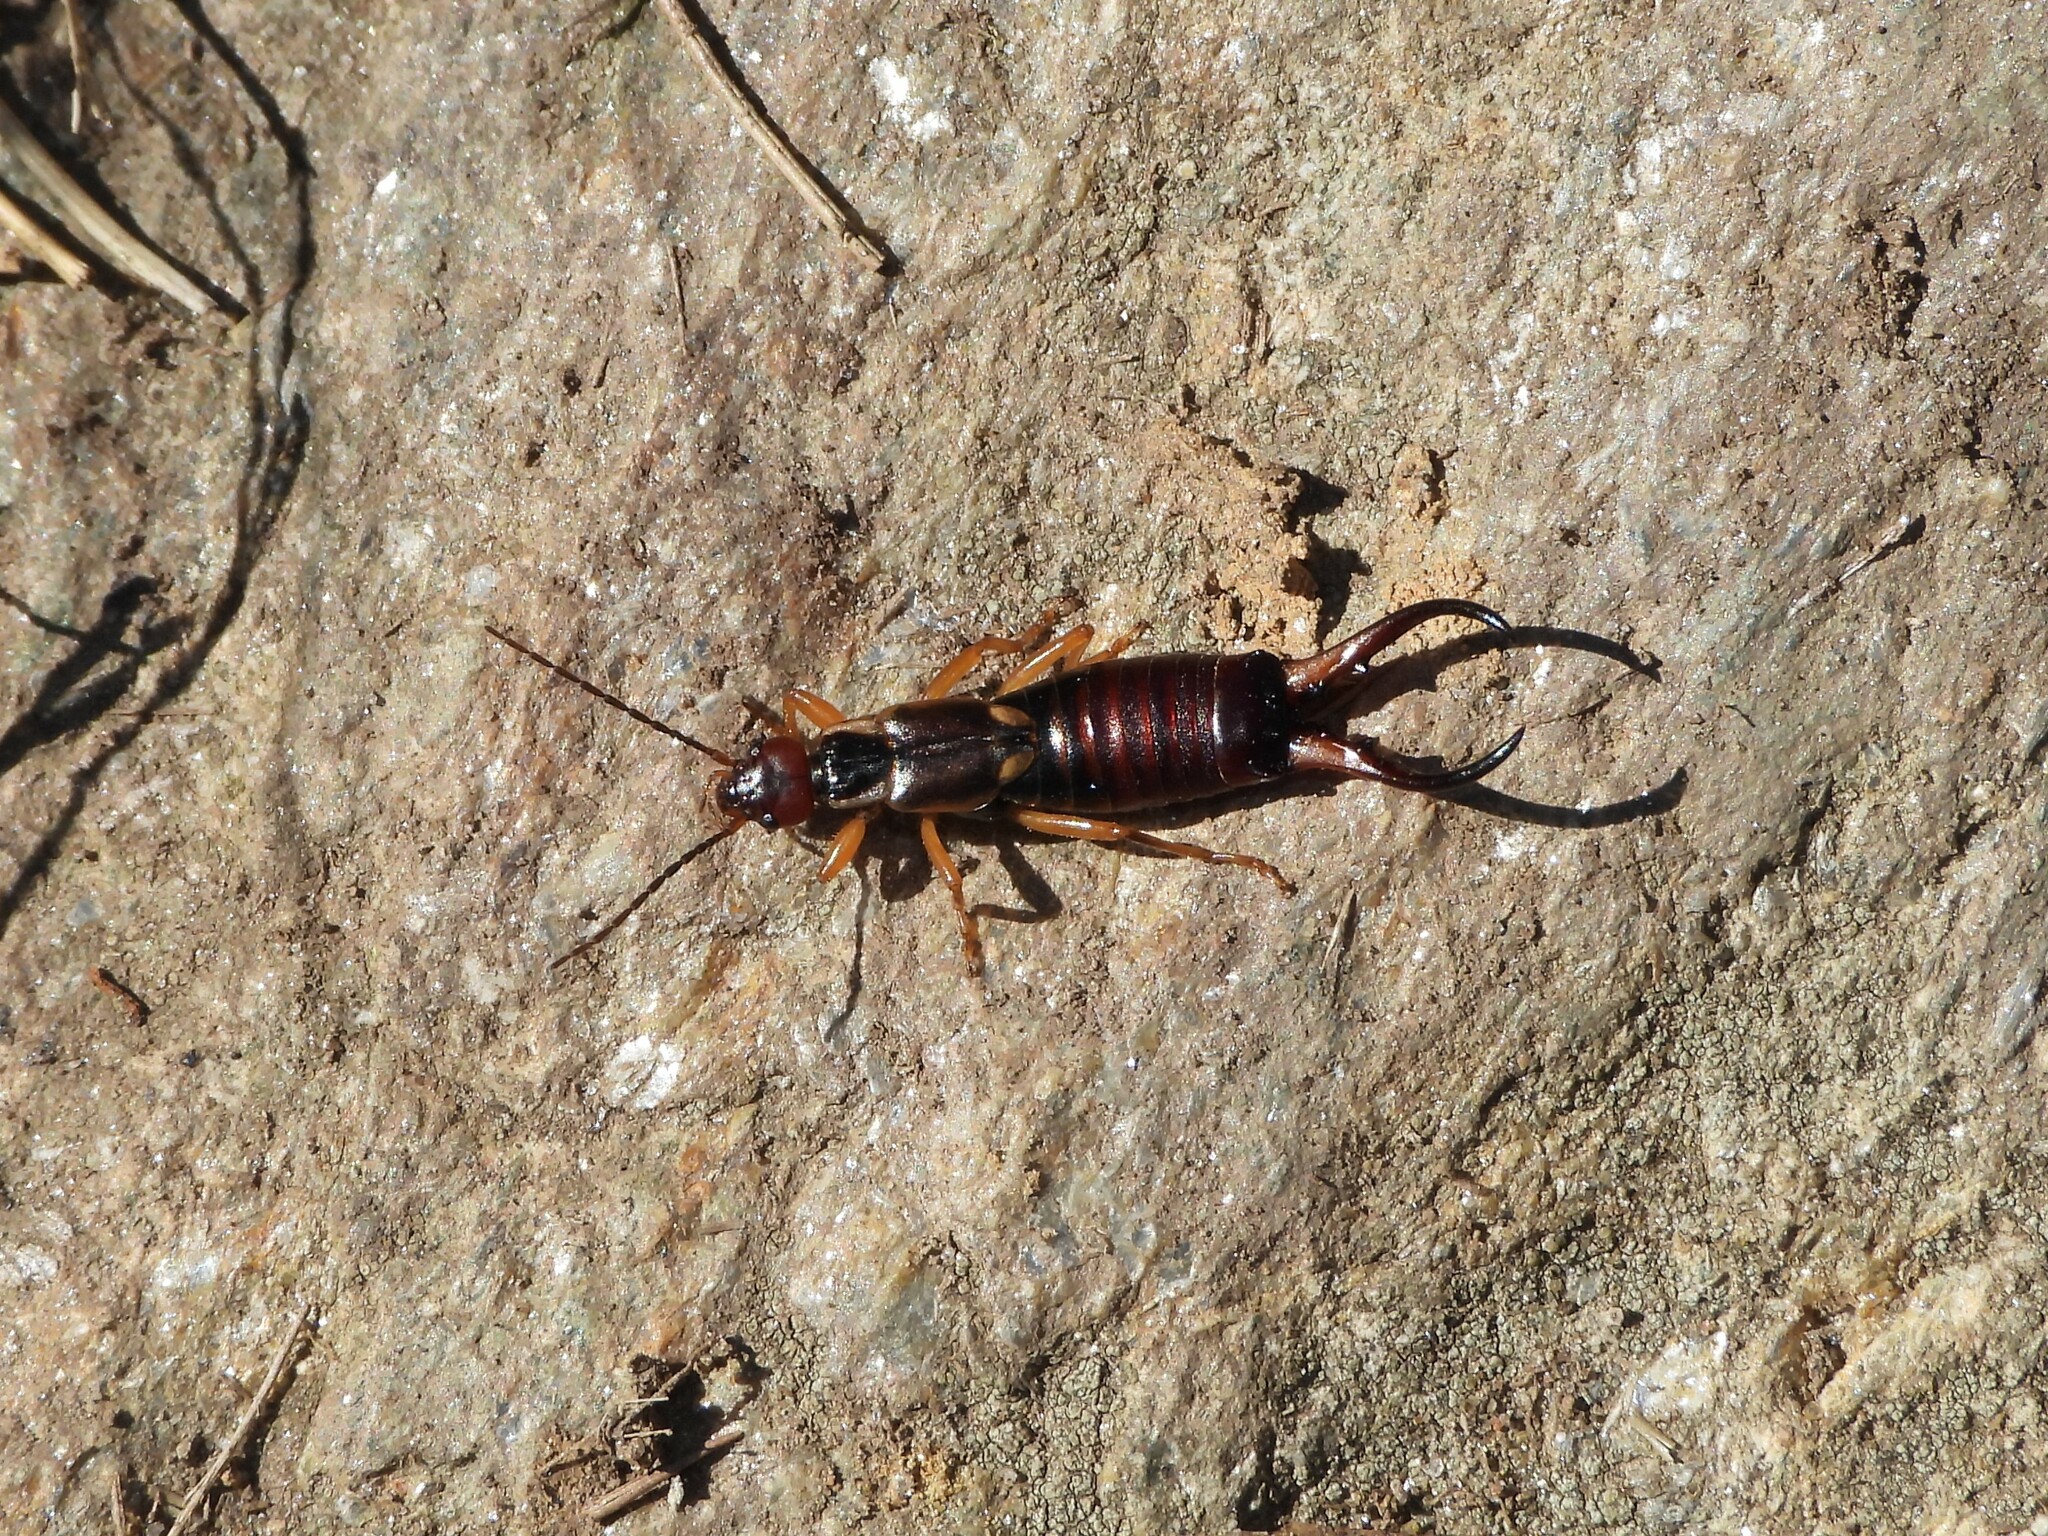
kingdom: Animalia
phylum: Arthropoda
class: Insecta
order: Dermaptera
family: Forficulidae
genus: Forficula
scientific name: Forficula
